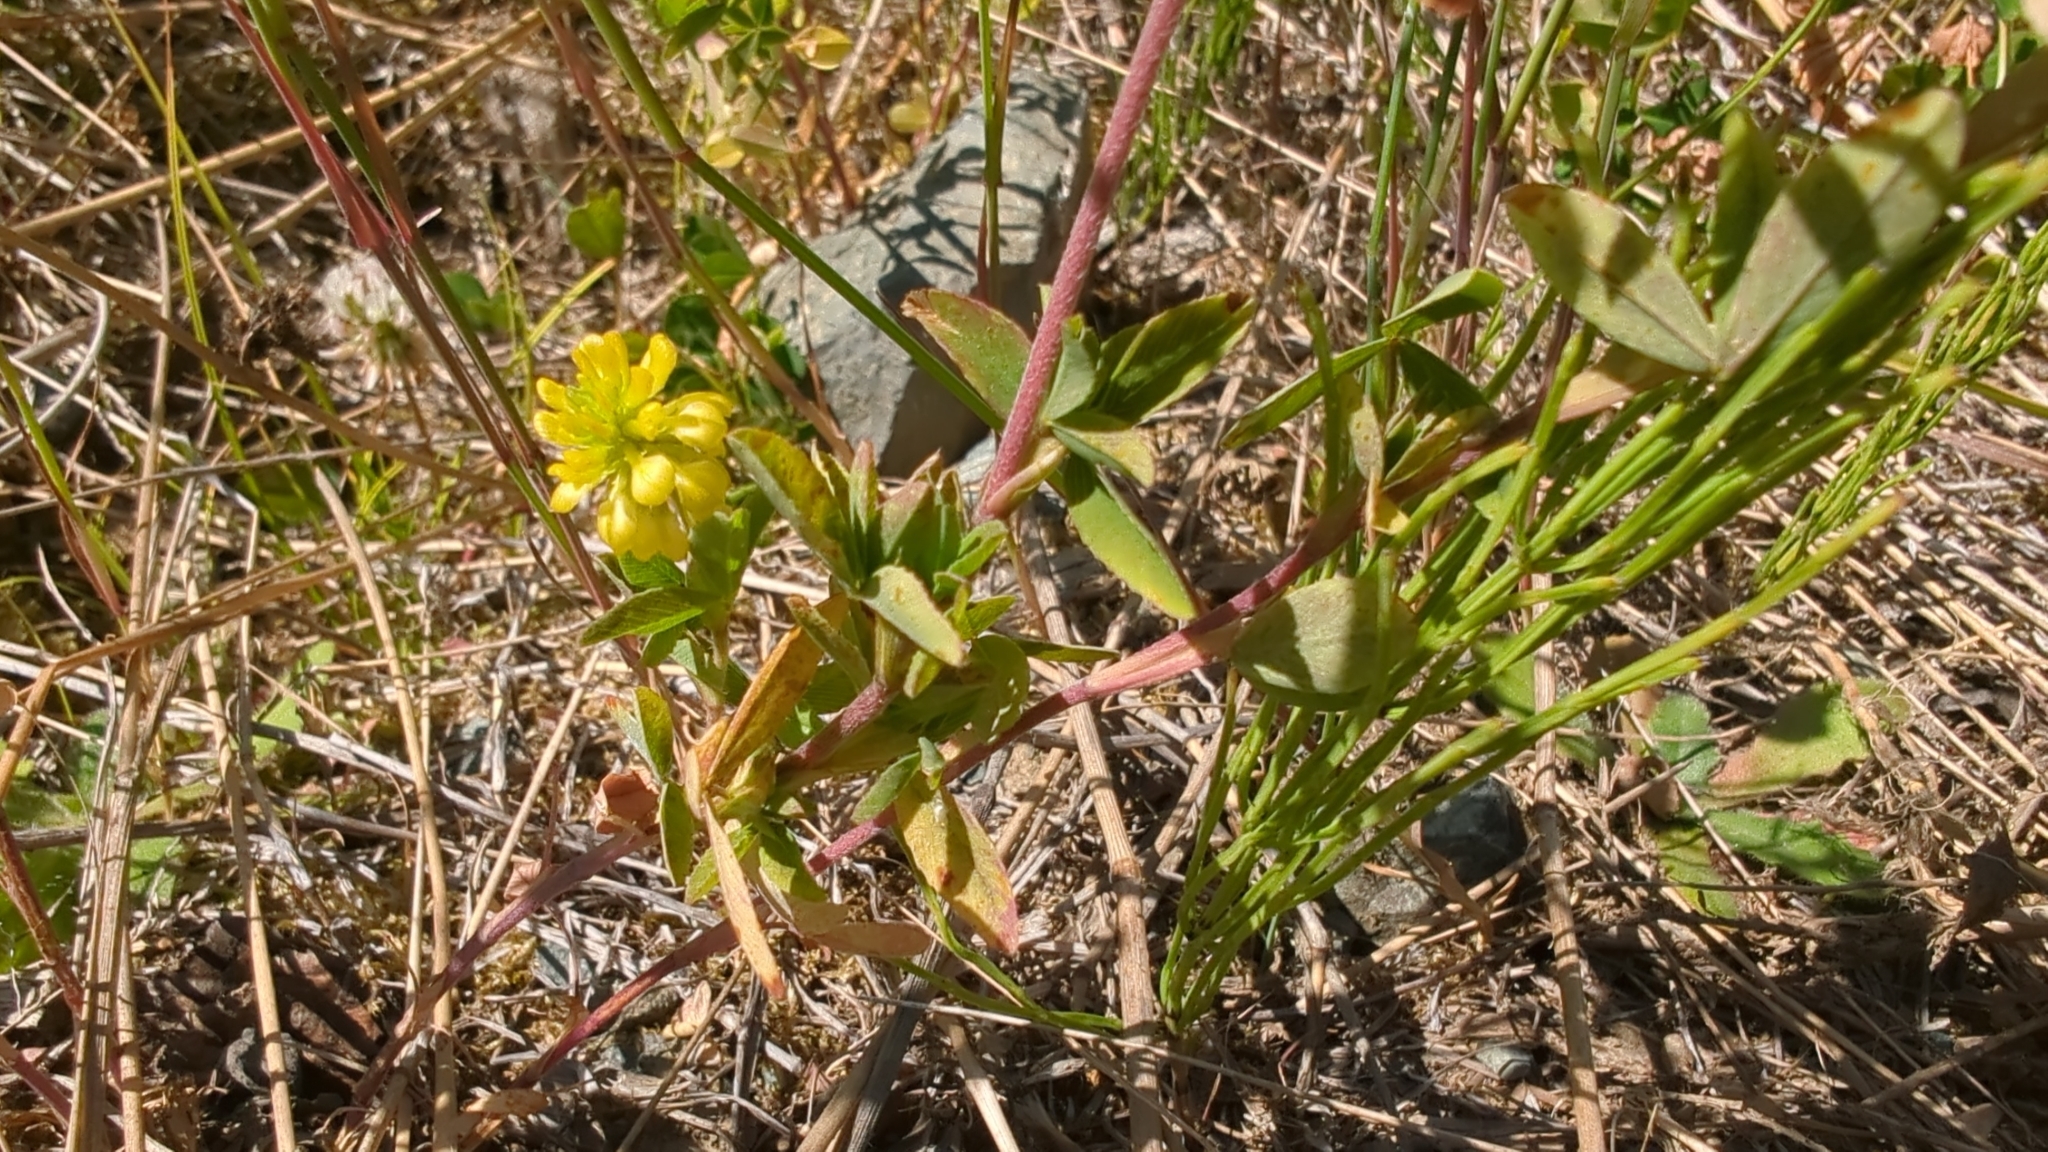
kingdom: Plantae
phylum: Tracheophyta
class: Magnoliopsida
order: Fabales
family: Fabaceae
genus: Trifolium
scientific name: Trifolium aureum
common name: Golden clover
